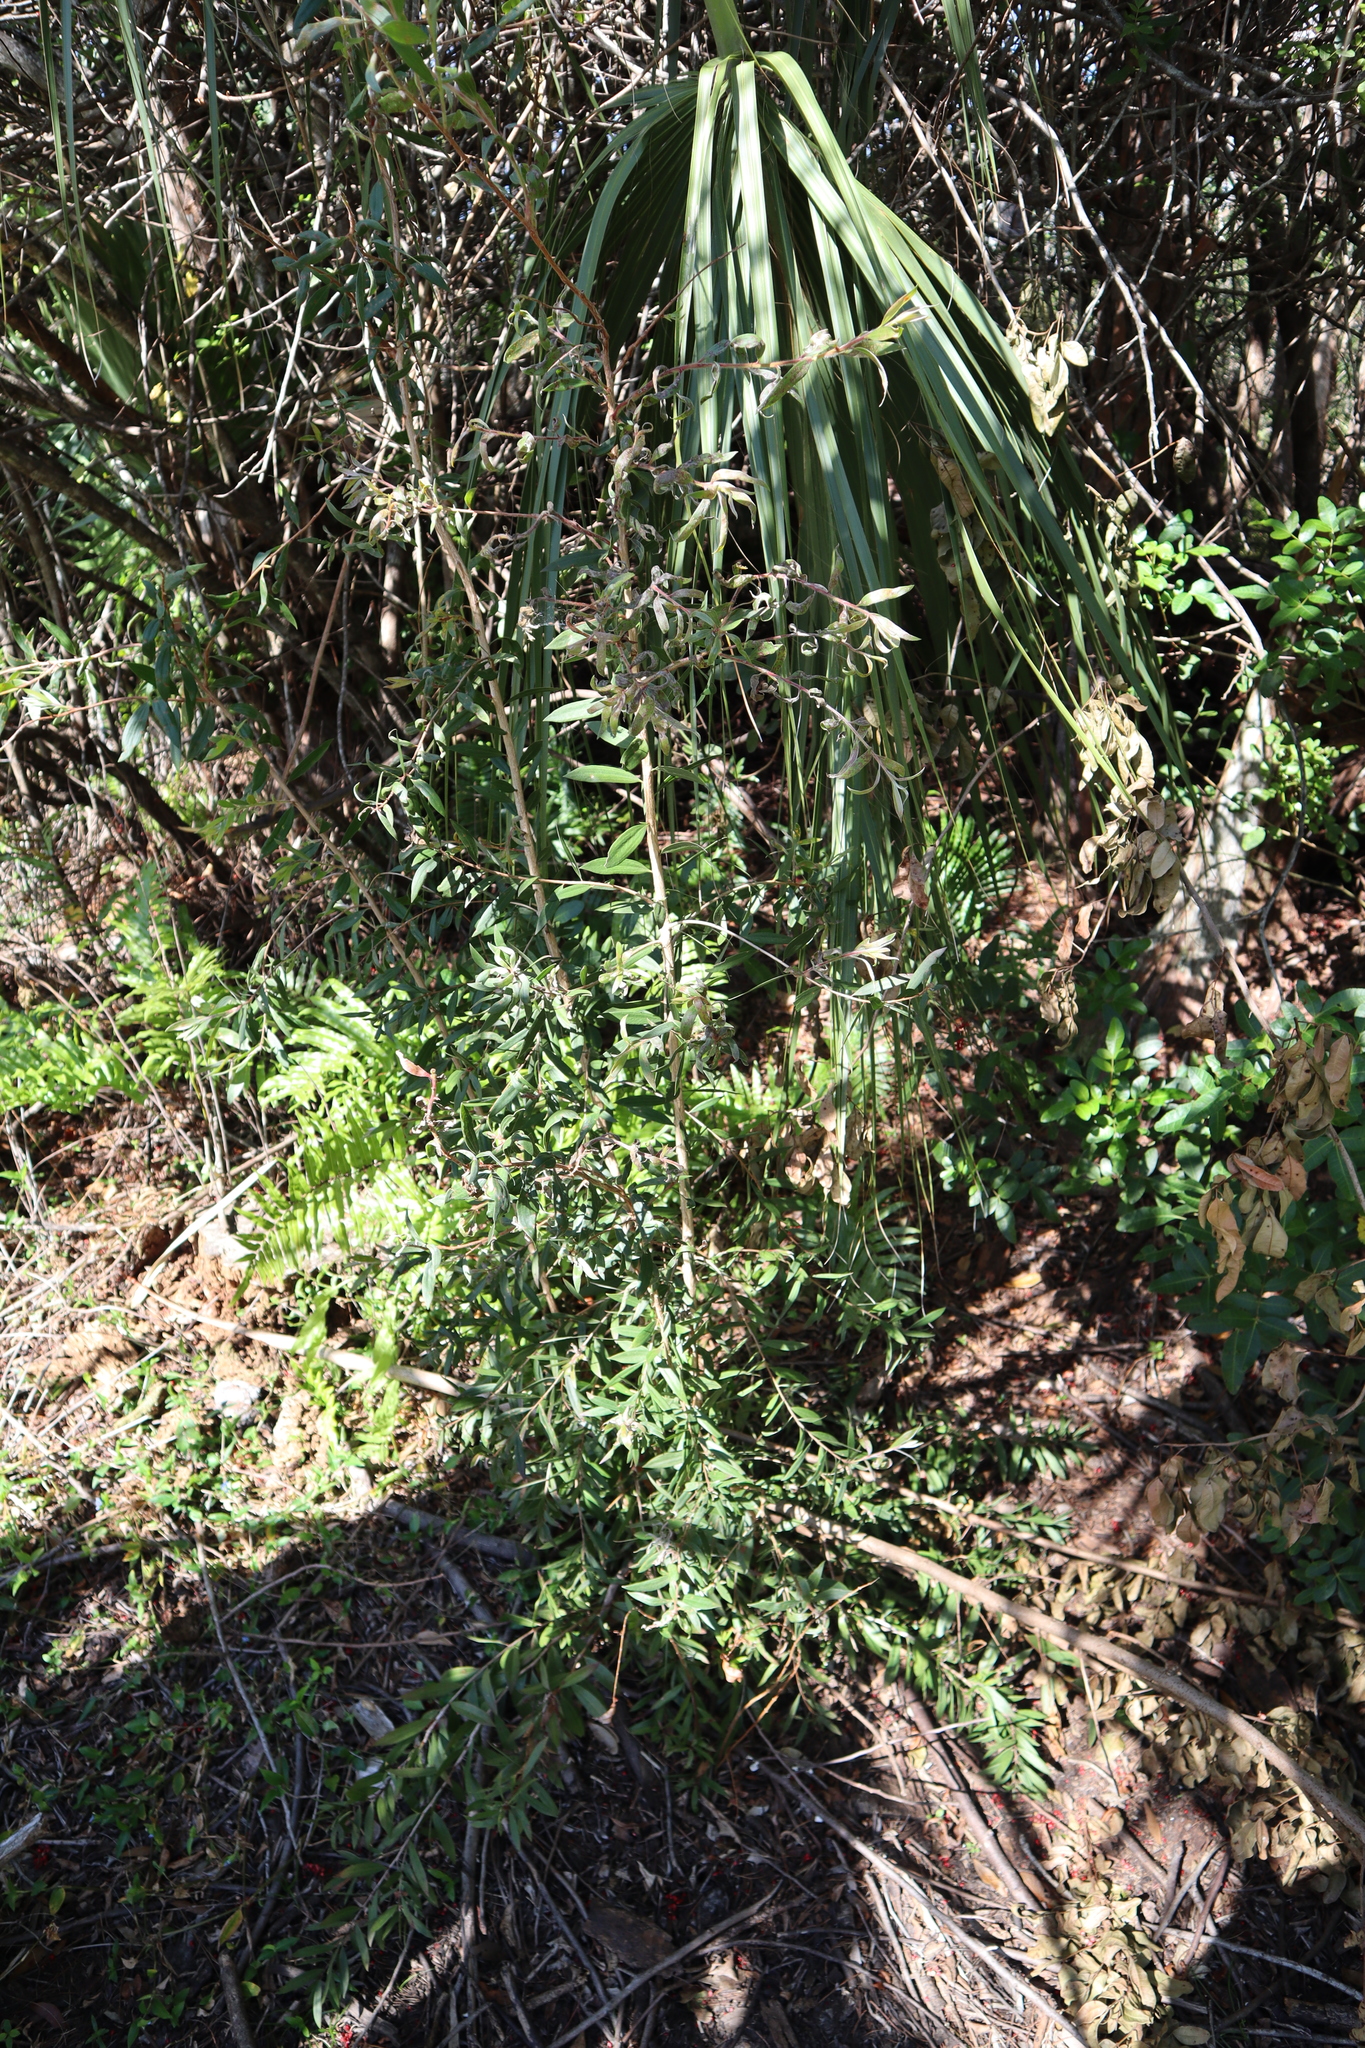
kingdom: Plantae
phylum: Tracheophyta
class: Magnoliopsida
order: Myrtales
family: Myrtaceae
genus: Melaleuca
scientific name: Melaleuca quinquenervia
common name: Punktree
